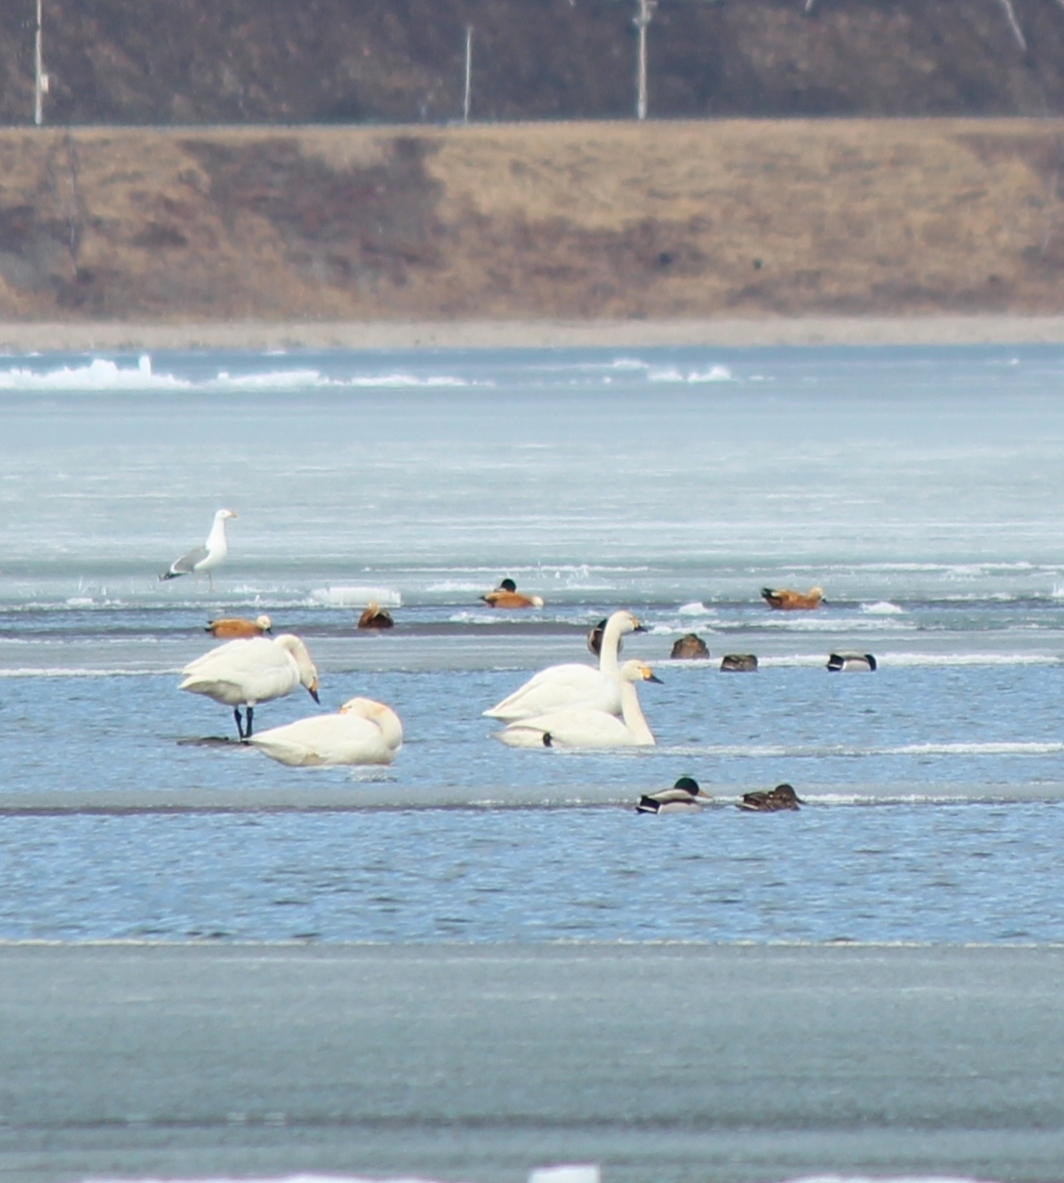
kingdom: Animalia
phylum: Chordata
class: Aves
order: Anseriformes
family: Anatidae
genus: Cygnus
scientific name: Cygnus columbianus
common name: Tundra swan
